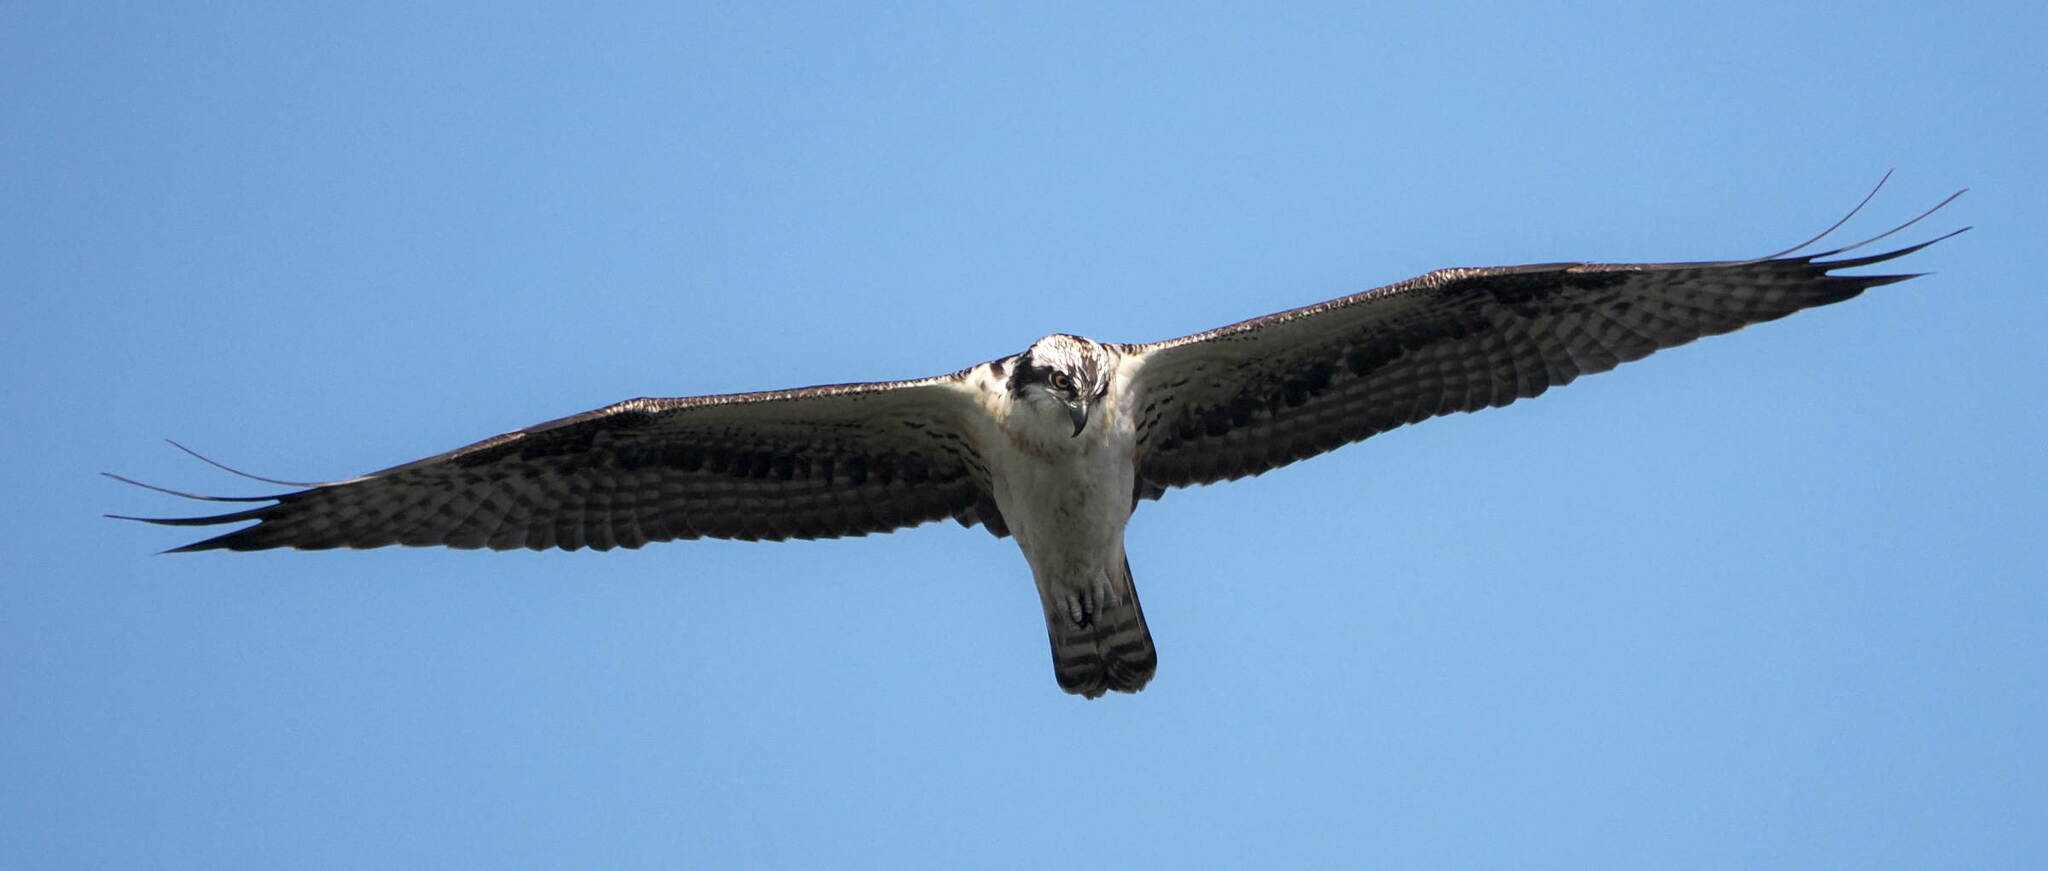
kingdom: Animalia
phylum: Chordata
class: Aves
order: Accipitriformes
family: Pandionidae
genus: Pandion
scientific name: Pandion haliaetus
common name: Osprey
